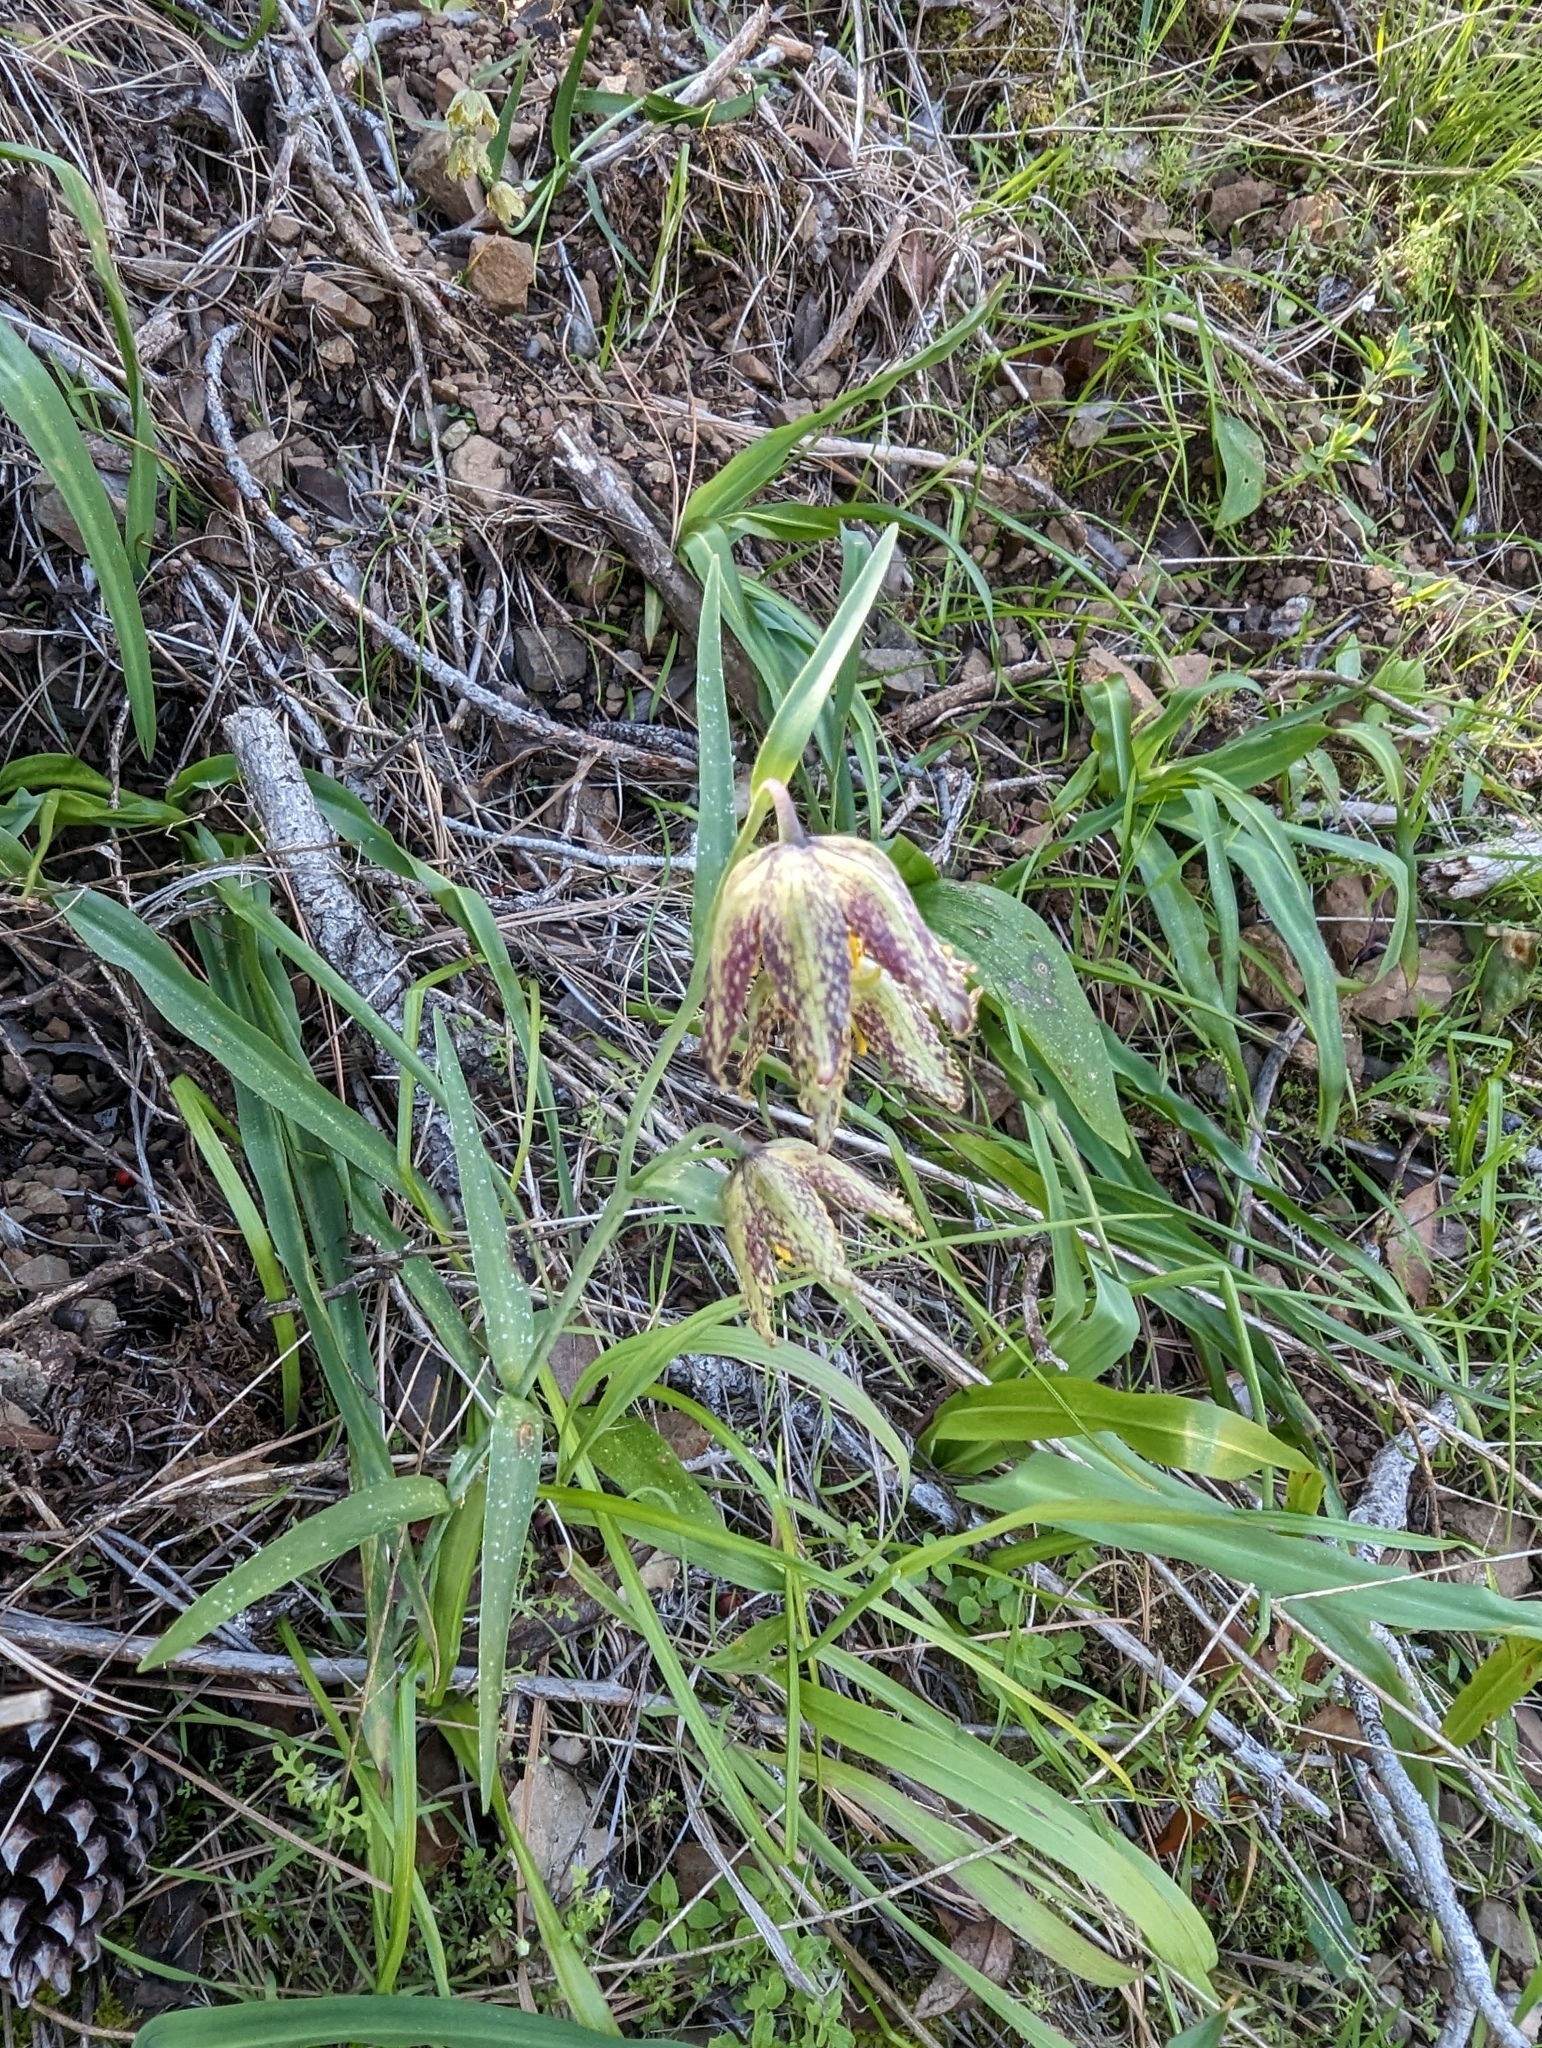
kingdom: Plantae
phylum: Tracheophyta
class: Liliopsida
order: Liliales
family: Liliaceae
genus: Fritillaria
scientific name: Fritillaria affinis
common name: Ojai fritillary
